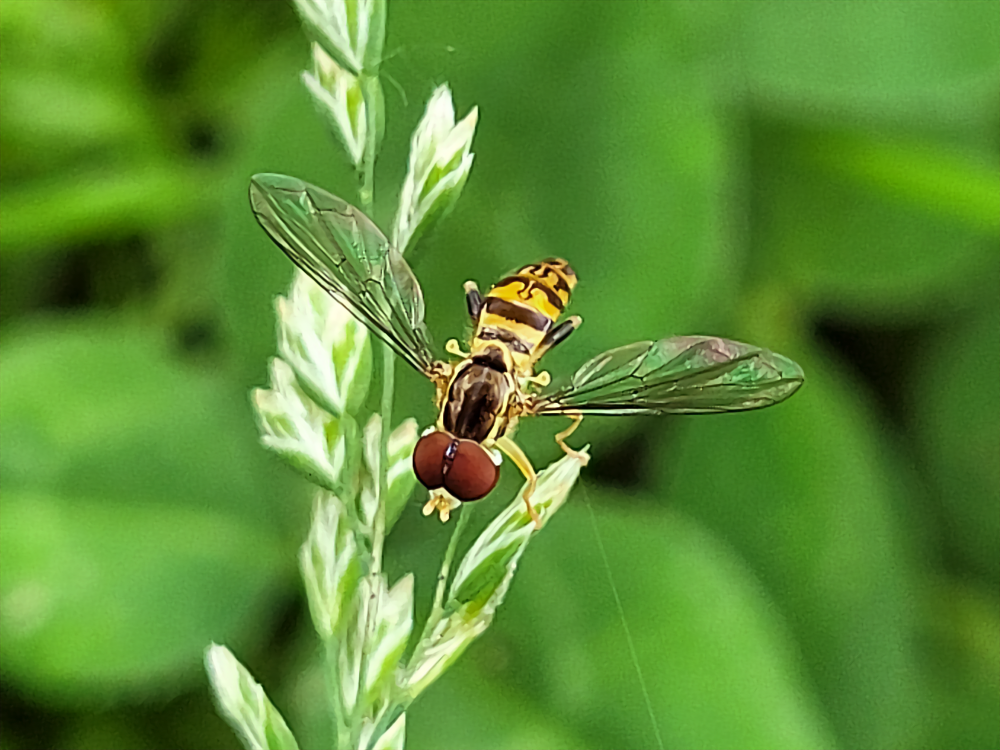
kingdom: Animalia
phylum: Arthropoda
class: Insecta
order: Diptera
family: Syrphidae
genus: Toxomerus
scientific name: Toxomerus geminatus
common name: Eastern calligrapher
